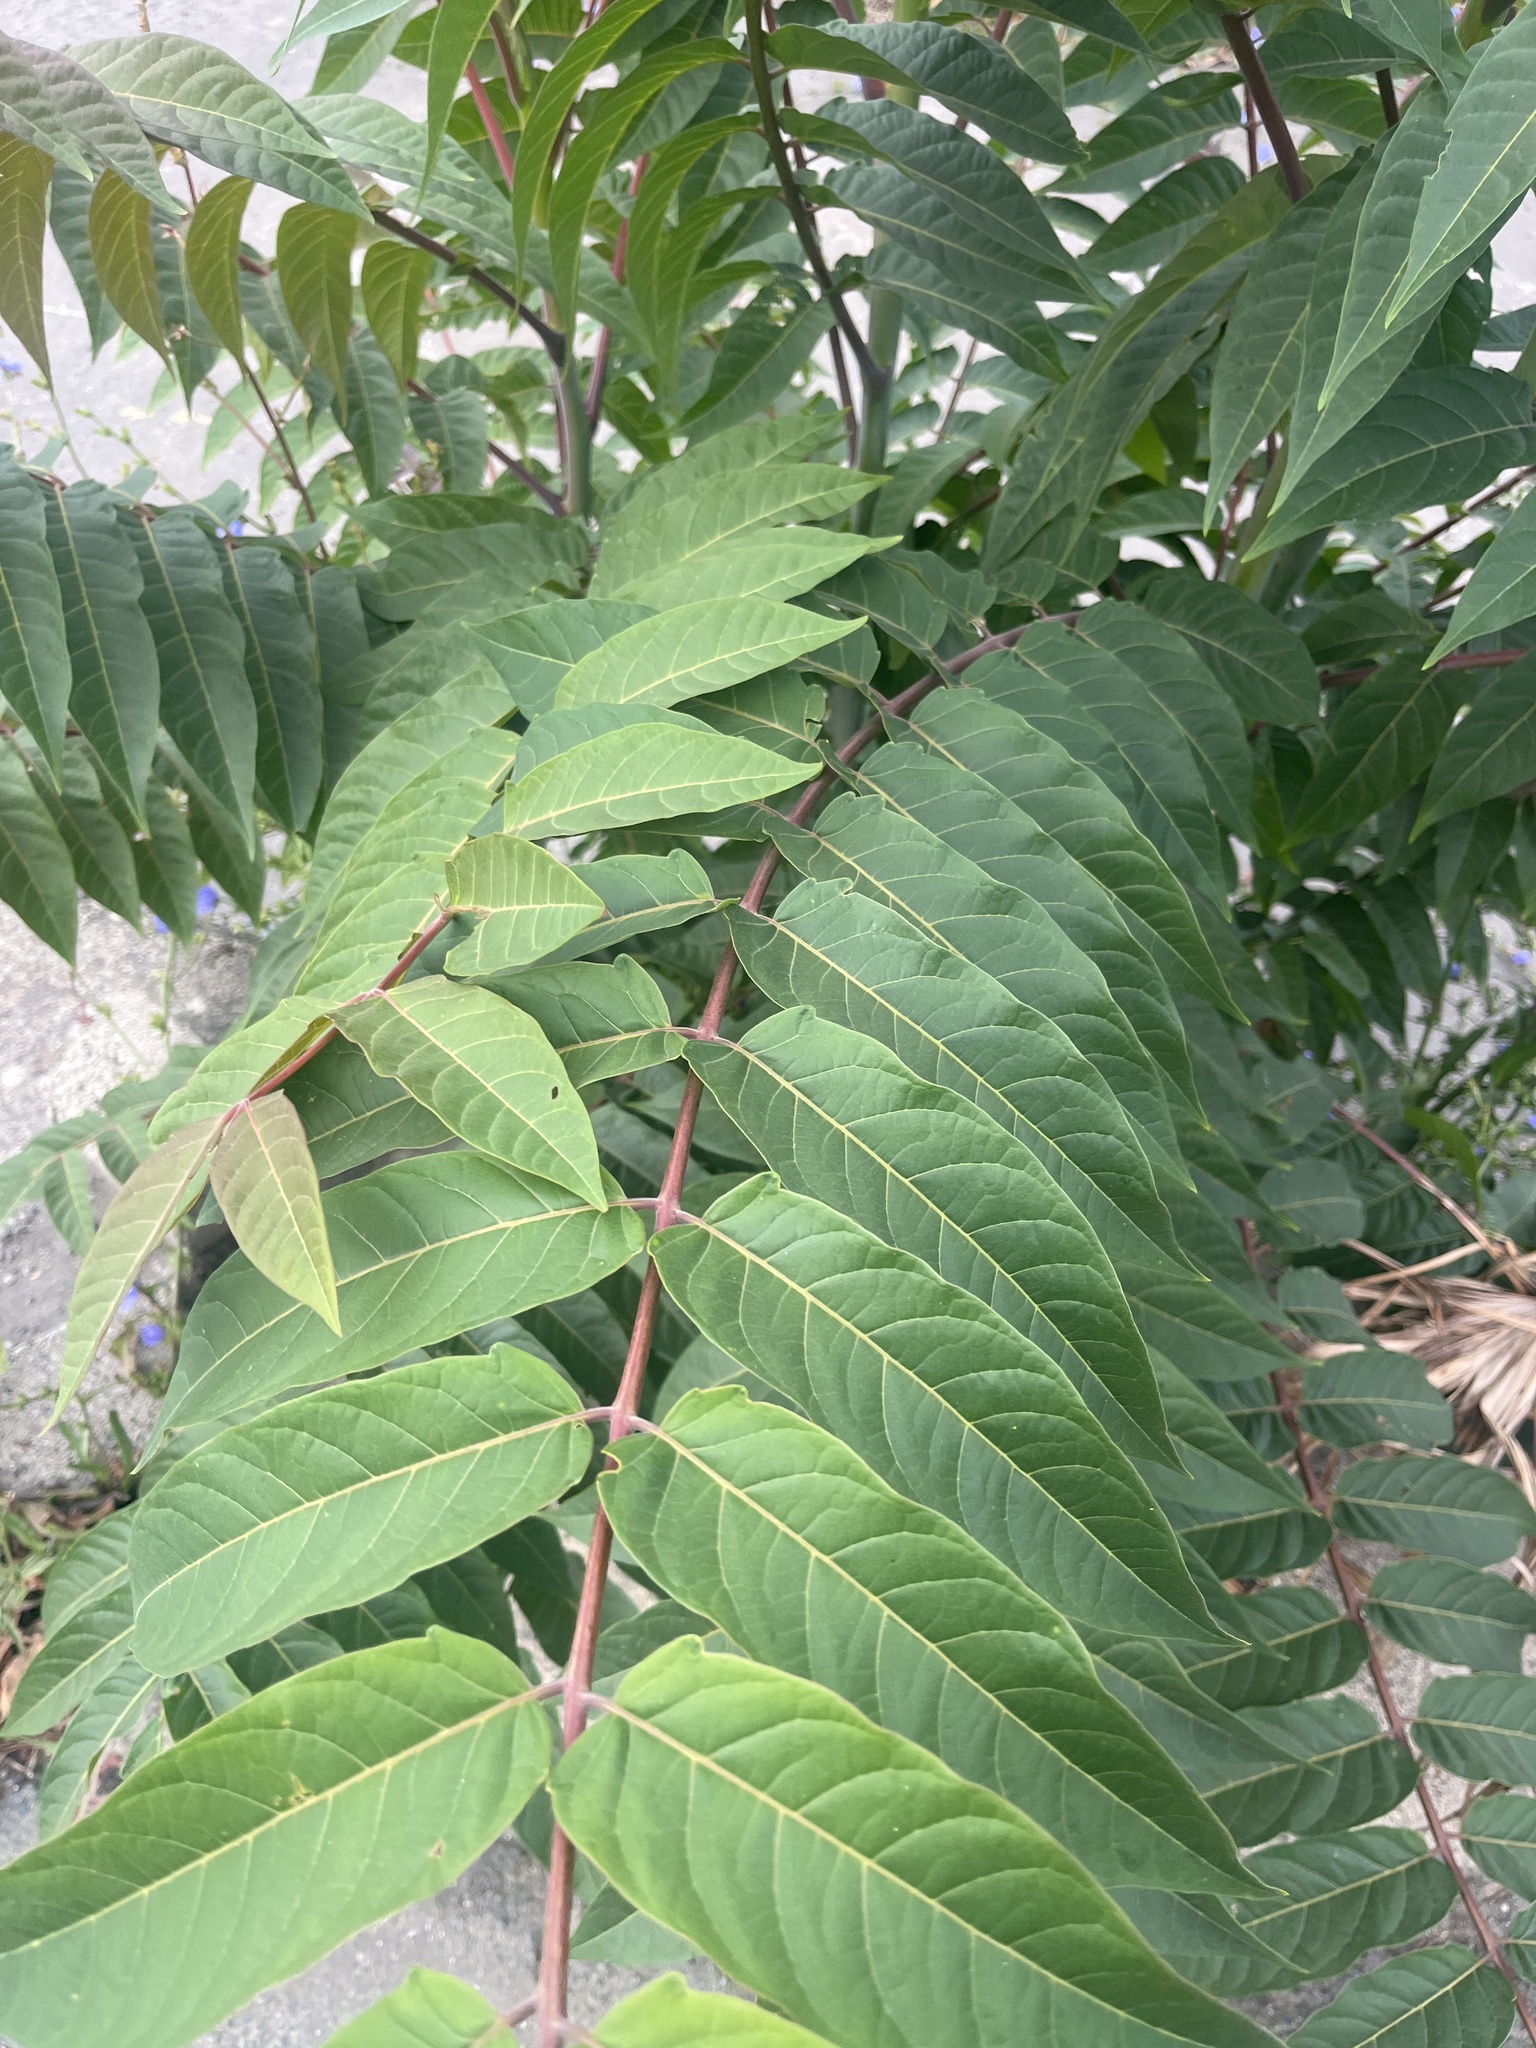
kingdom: Plantae
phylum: Tracheophyta
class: Magnoliopsida
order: Sapindales
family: Simaroubaceae
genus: Ailanthus
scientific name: Ailanthus altissima
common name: Tree-of-heaven
